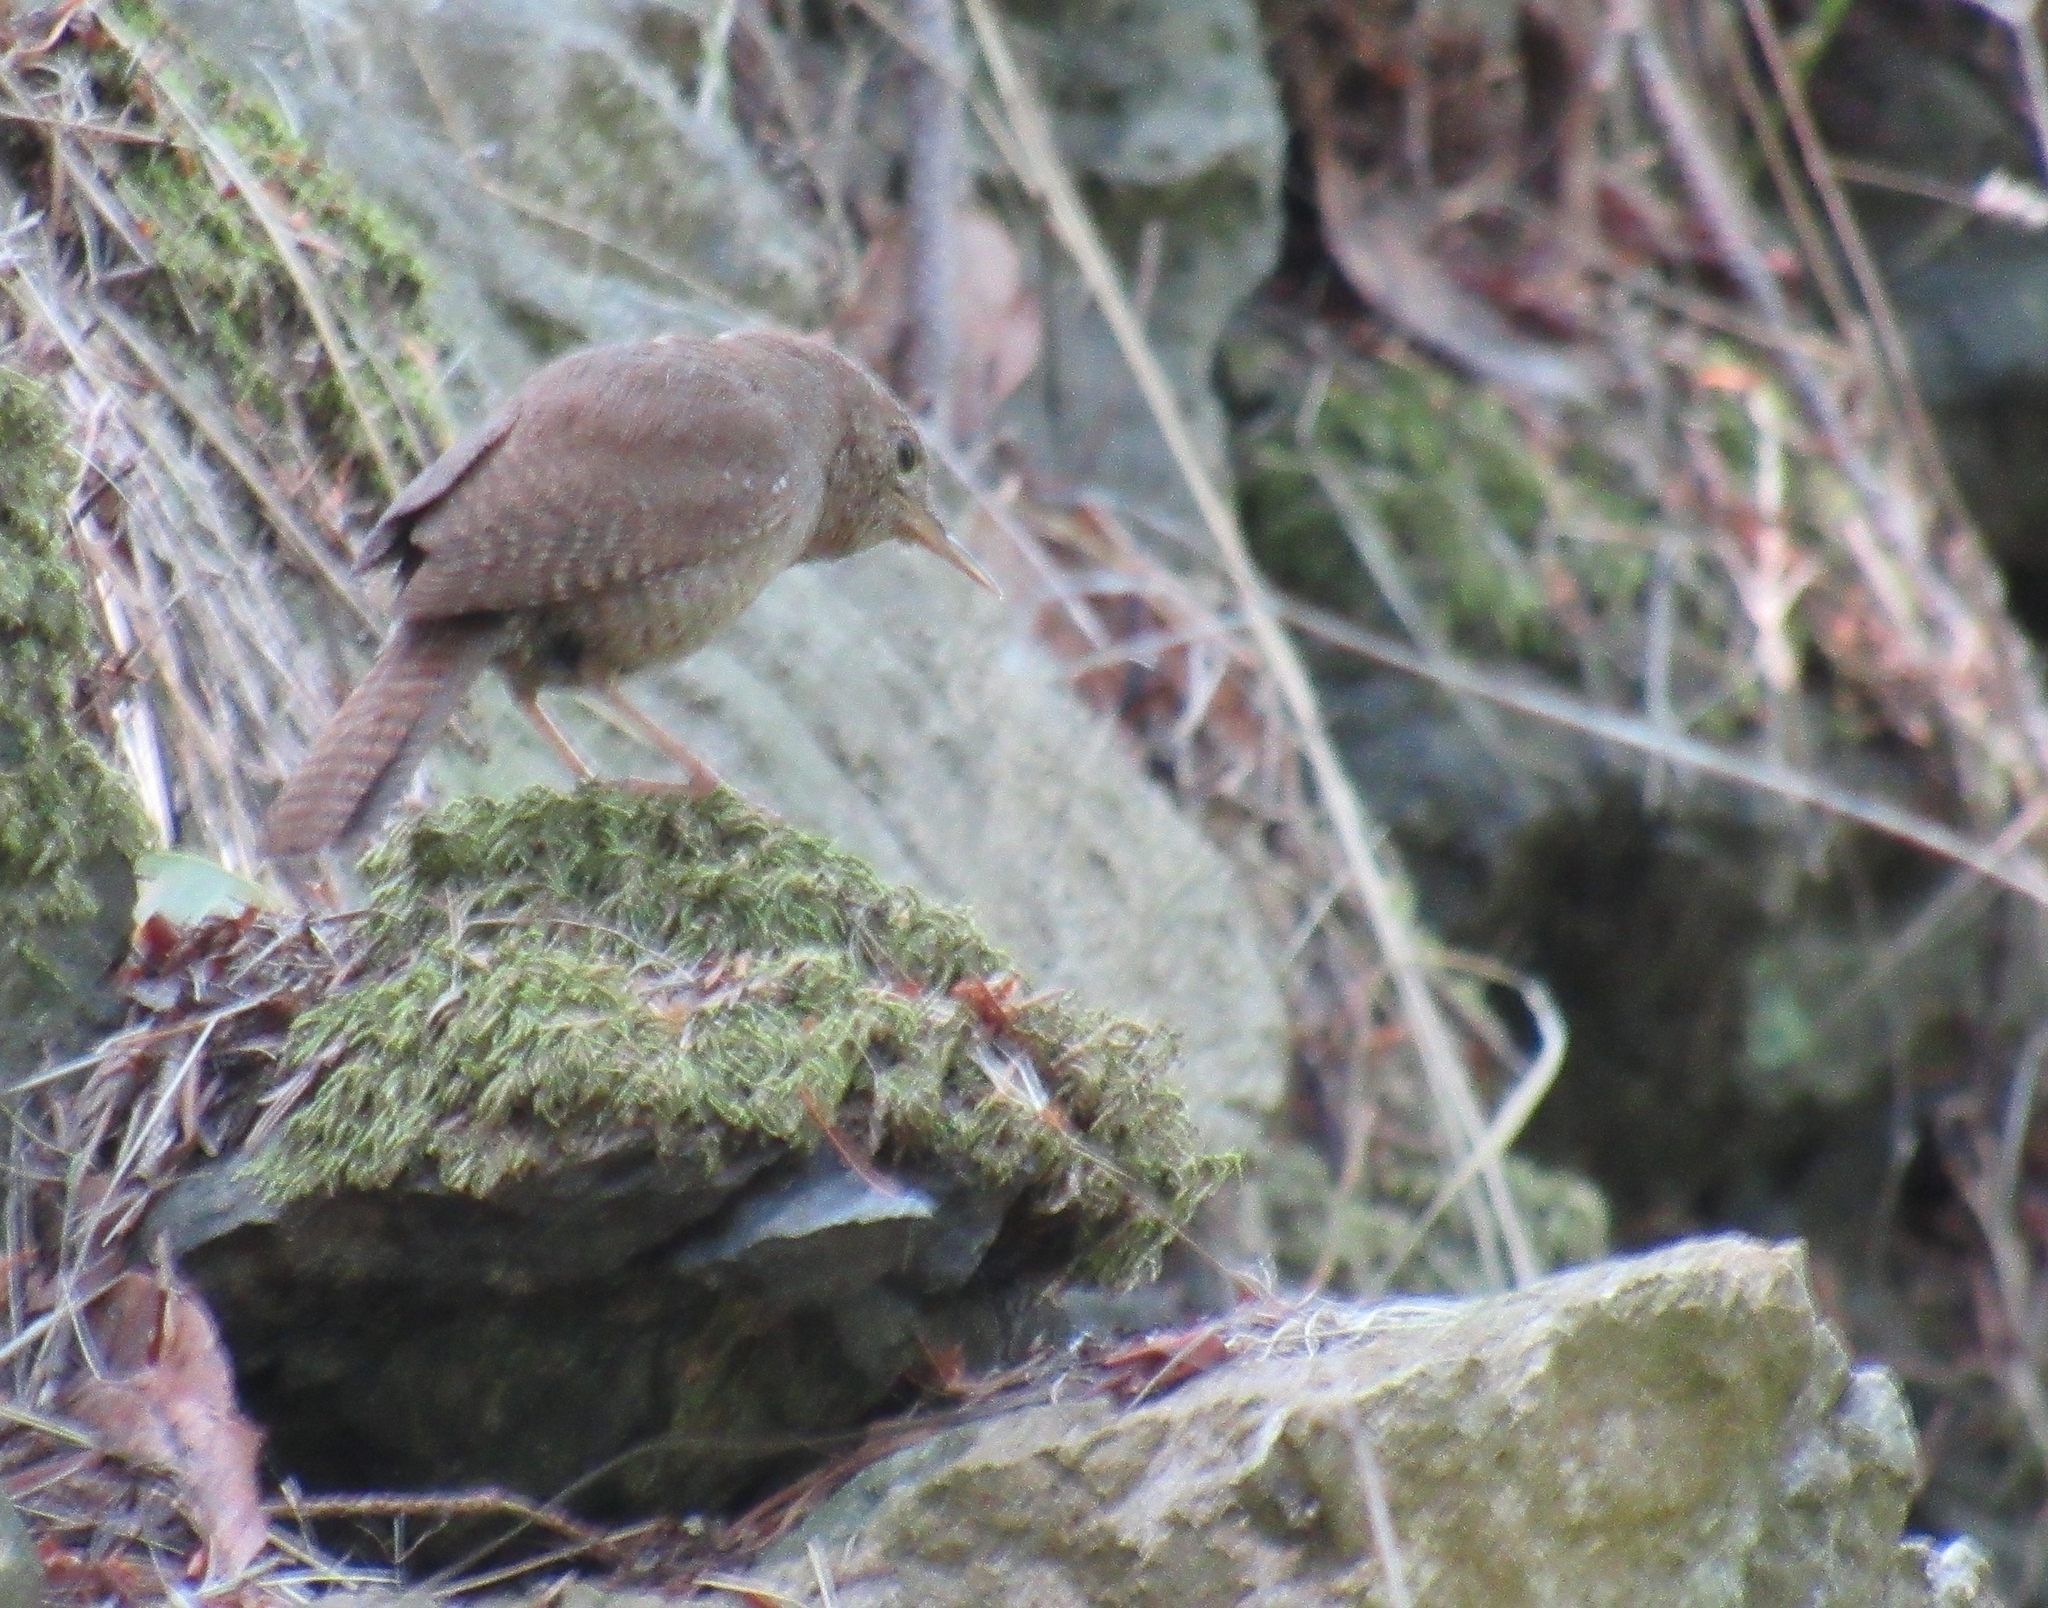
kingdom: Animalia
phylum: Chordata
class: Aves
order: Passeriformes
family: Troglodytidae
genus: Troglodytes
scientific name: Troglodytes aedon
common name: House wren
